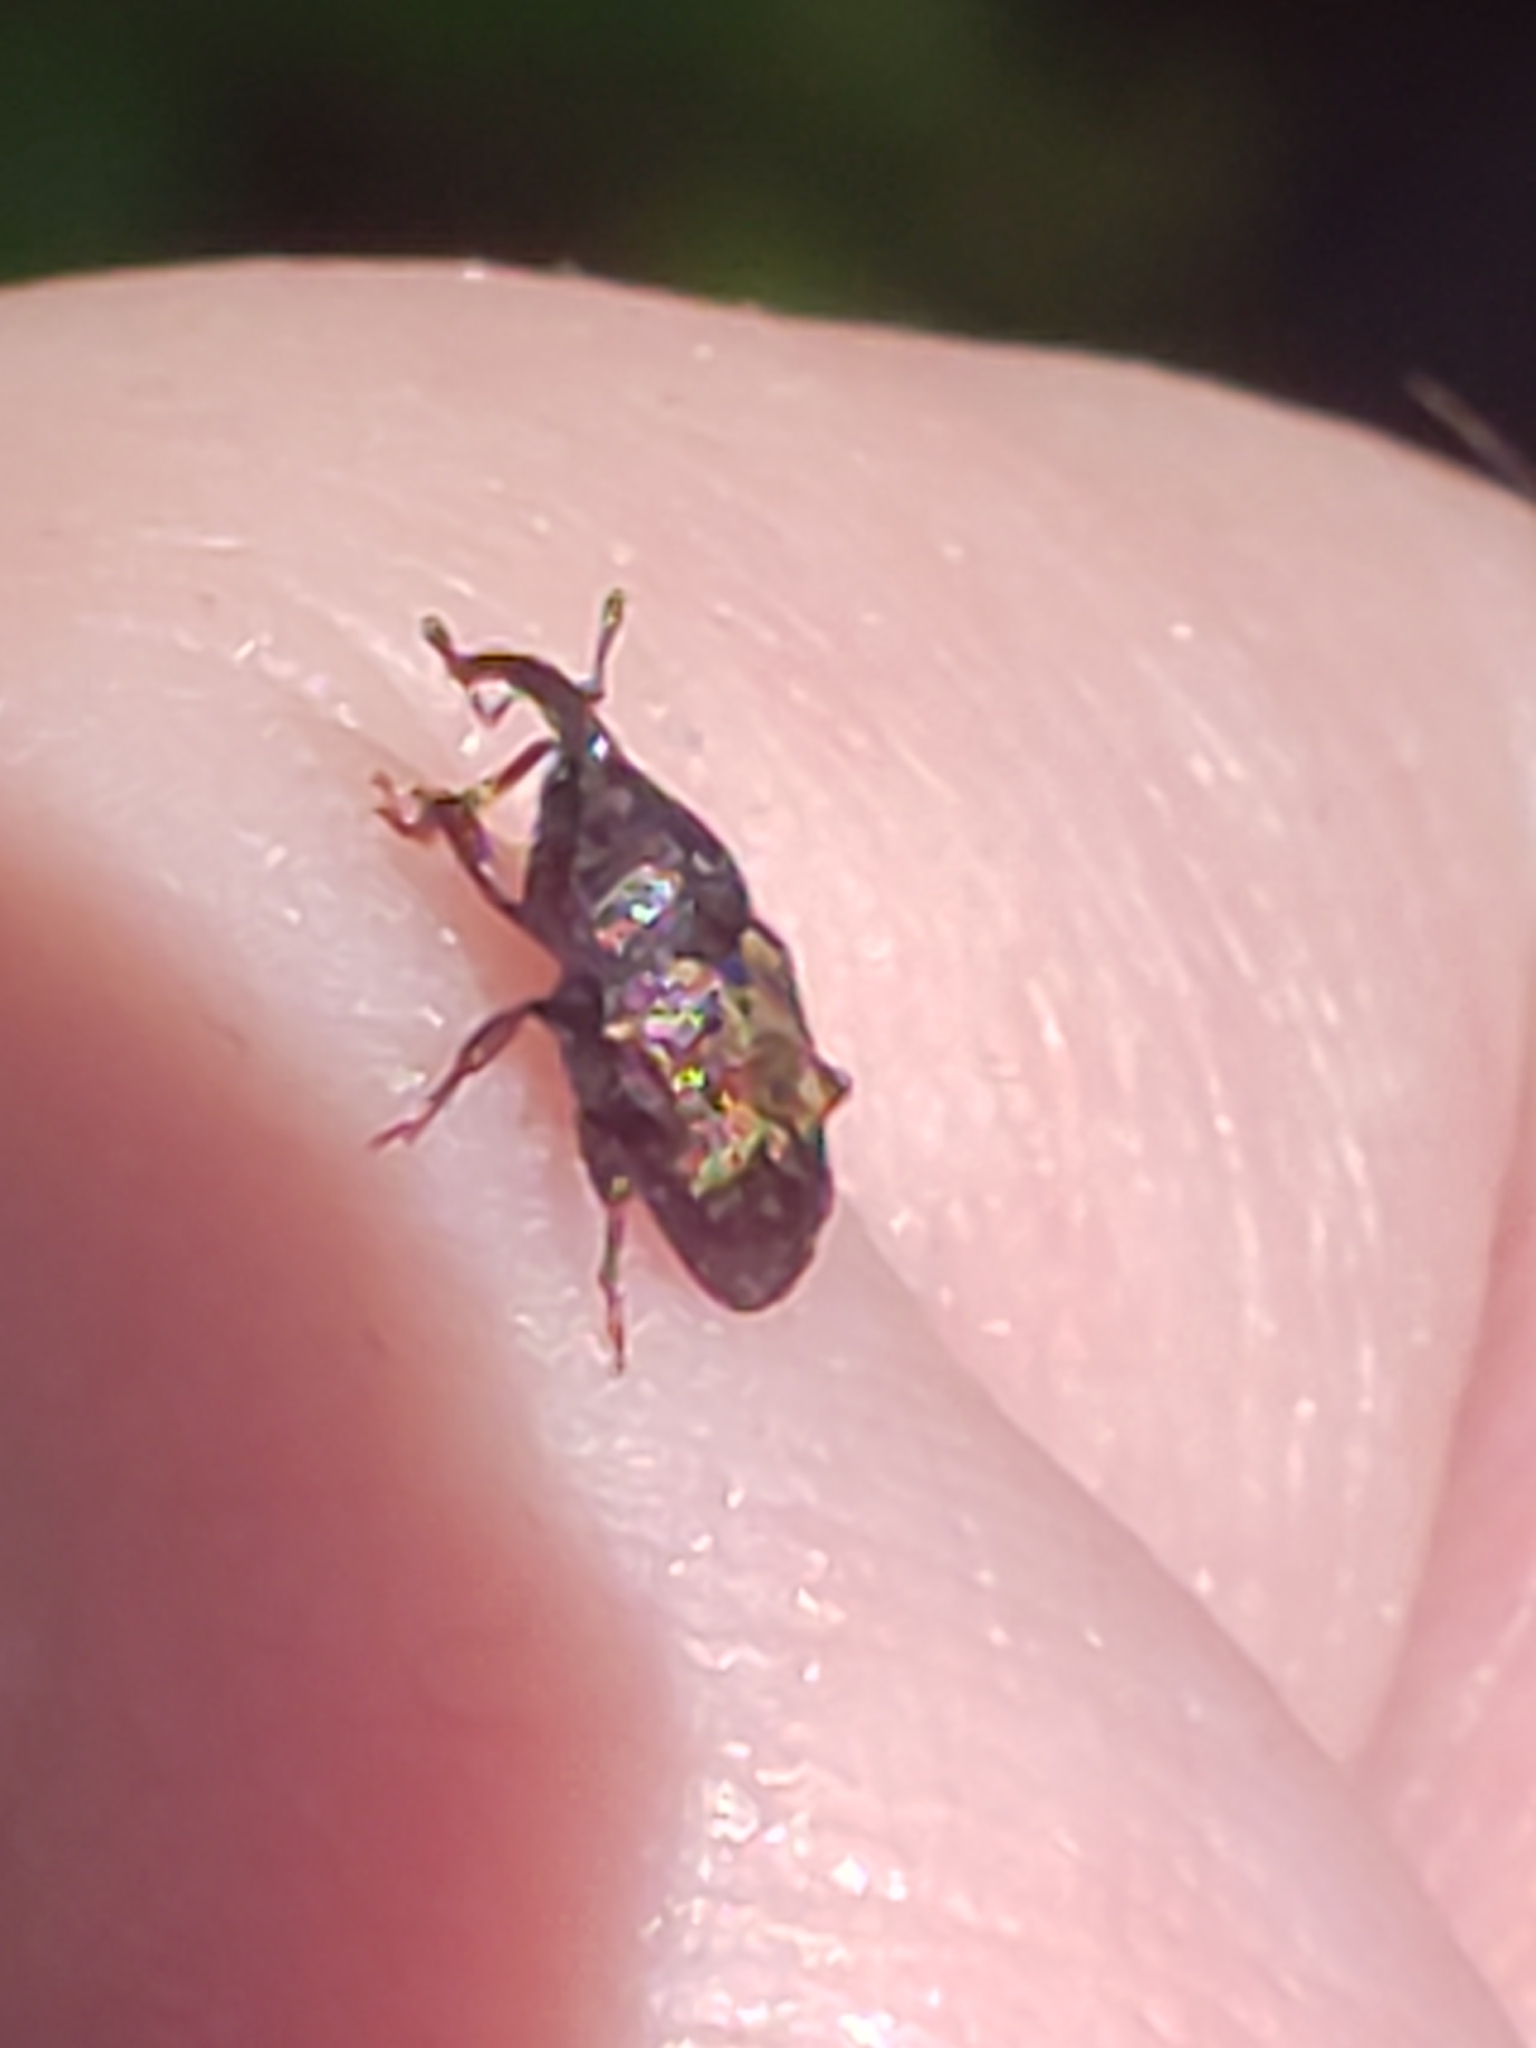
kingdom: Animalia
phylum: Arthropoda
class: Insecta
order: Coleoptera
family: Curculionidae
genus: Glyptobaris
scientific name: Glyptobaris lecontei
